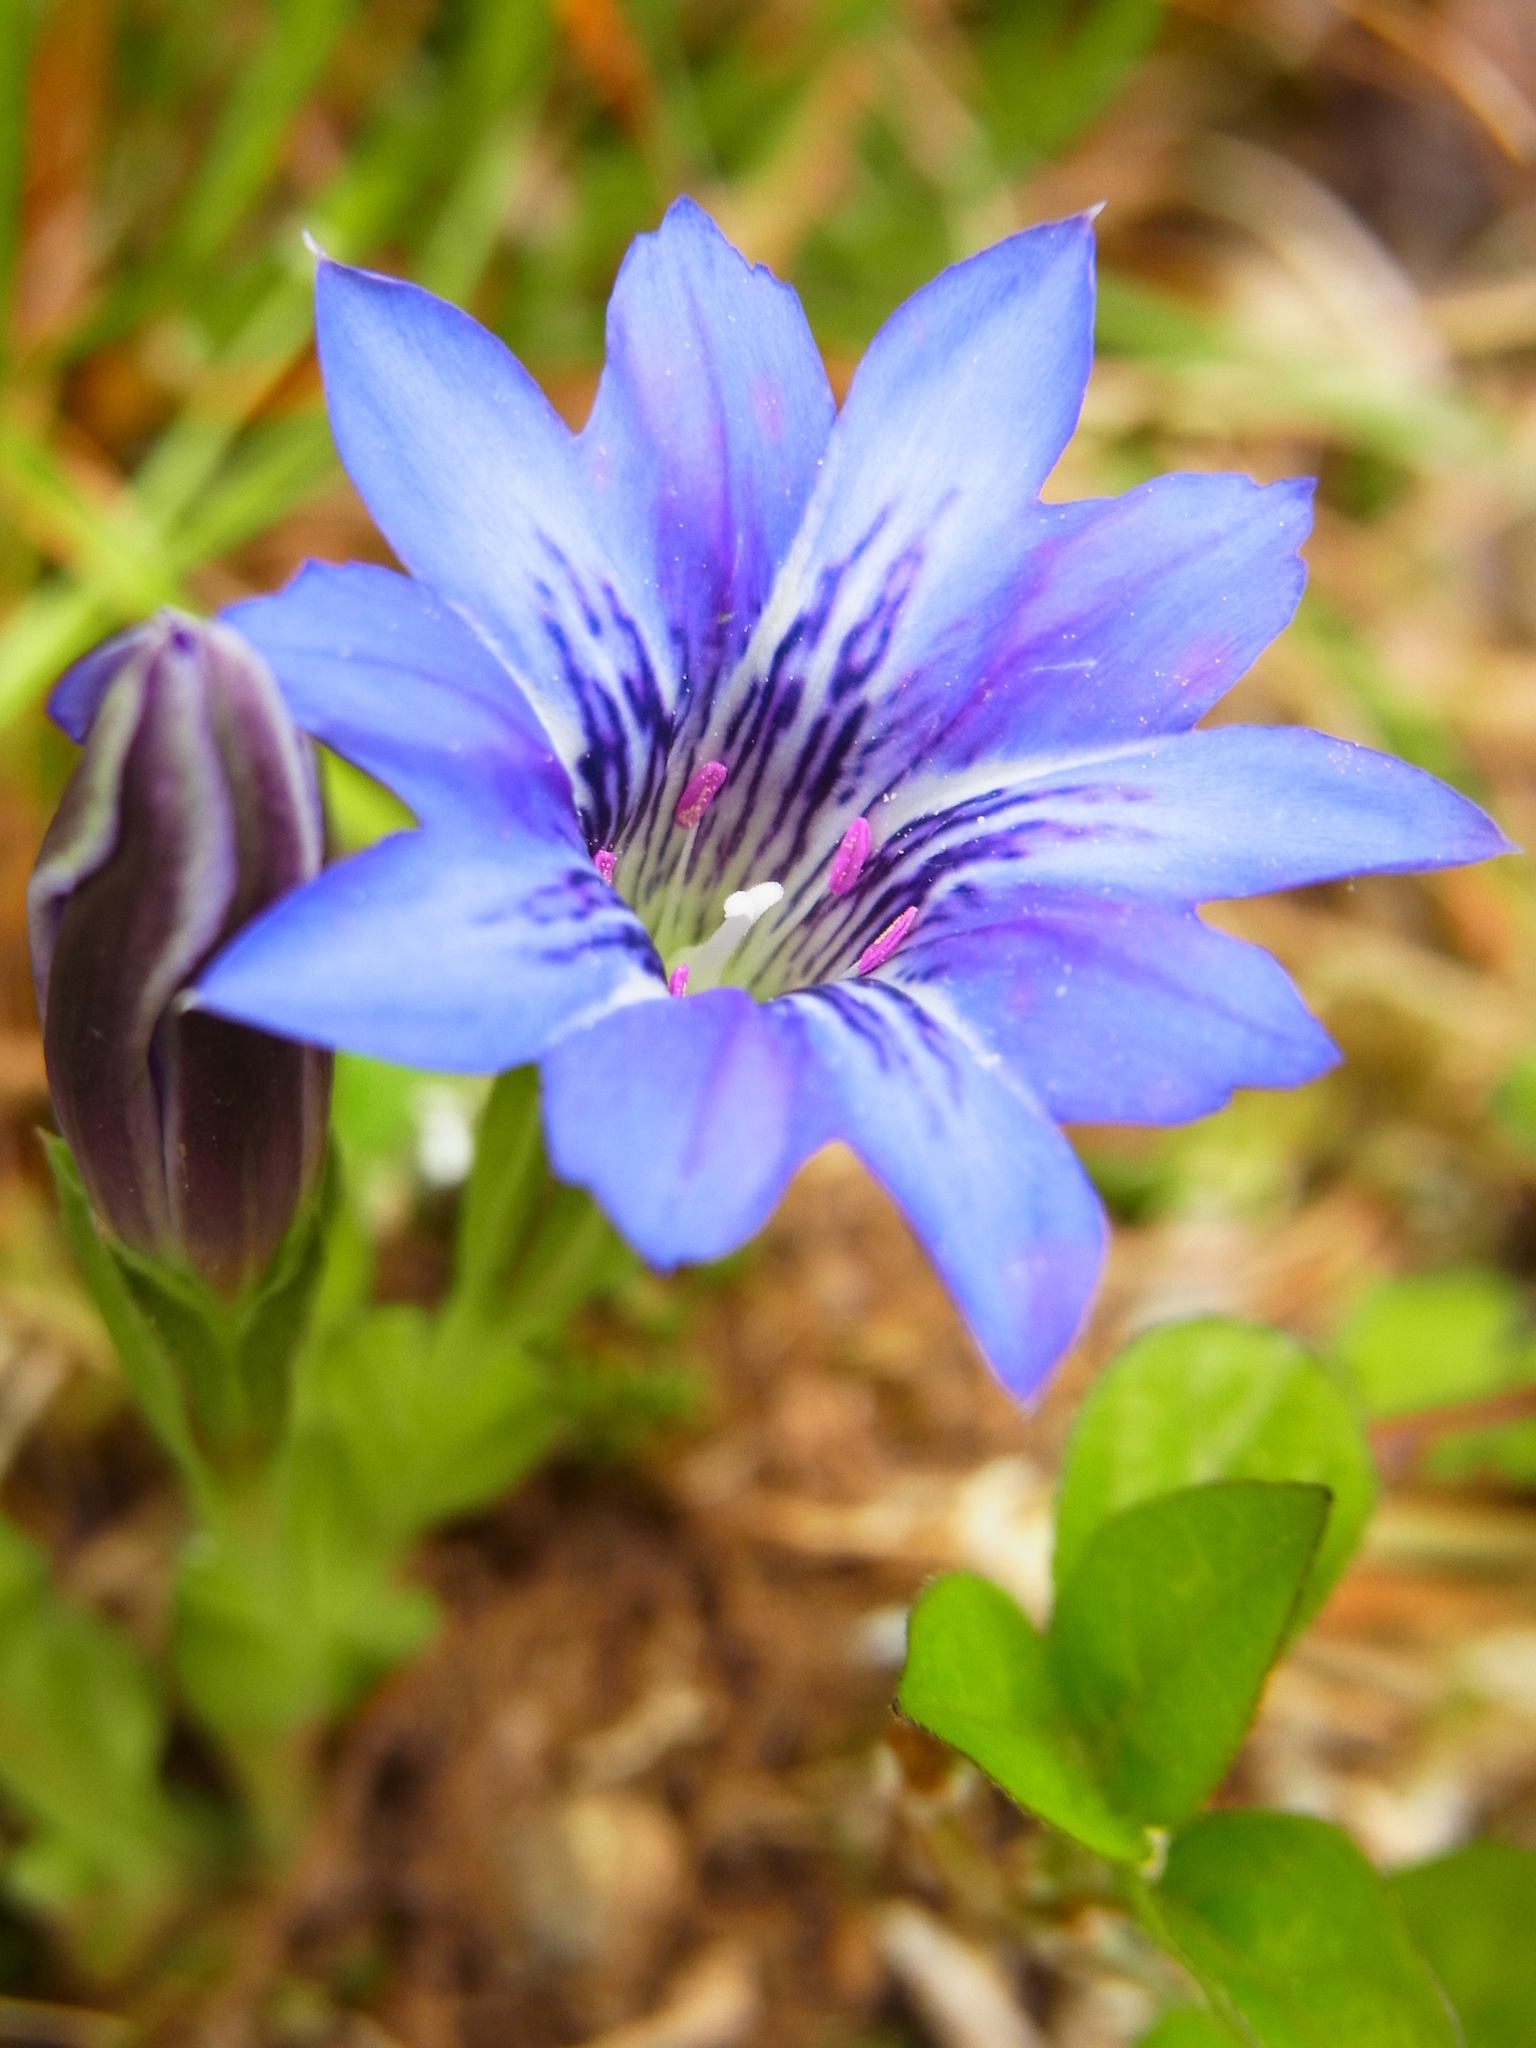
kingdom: Plantae
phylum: Tracheophyta
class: Magnoliopsida
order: Gentianales
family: Gentianaceae
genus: Gentiana
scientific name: Gentiana thunbergii
